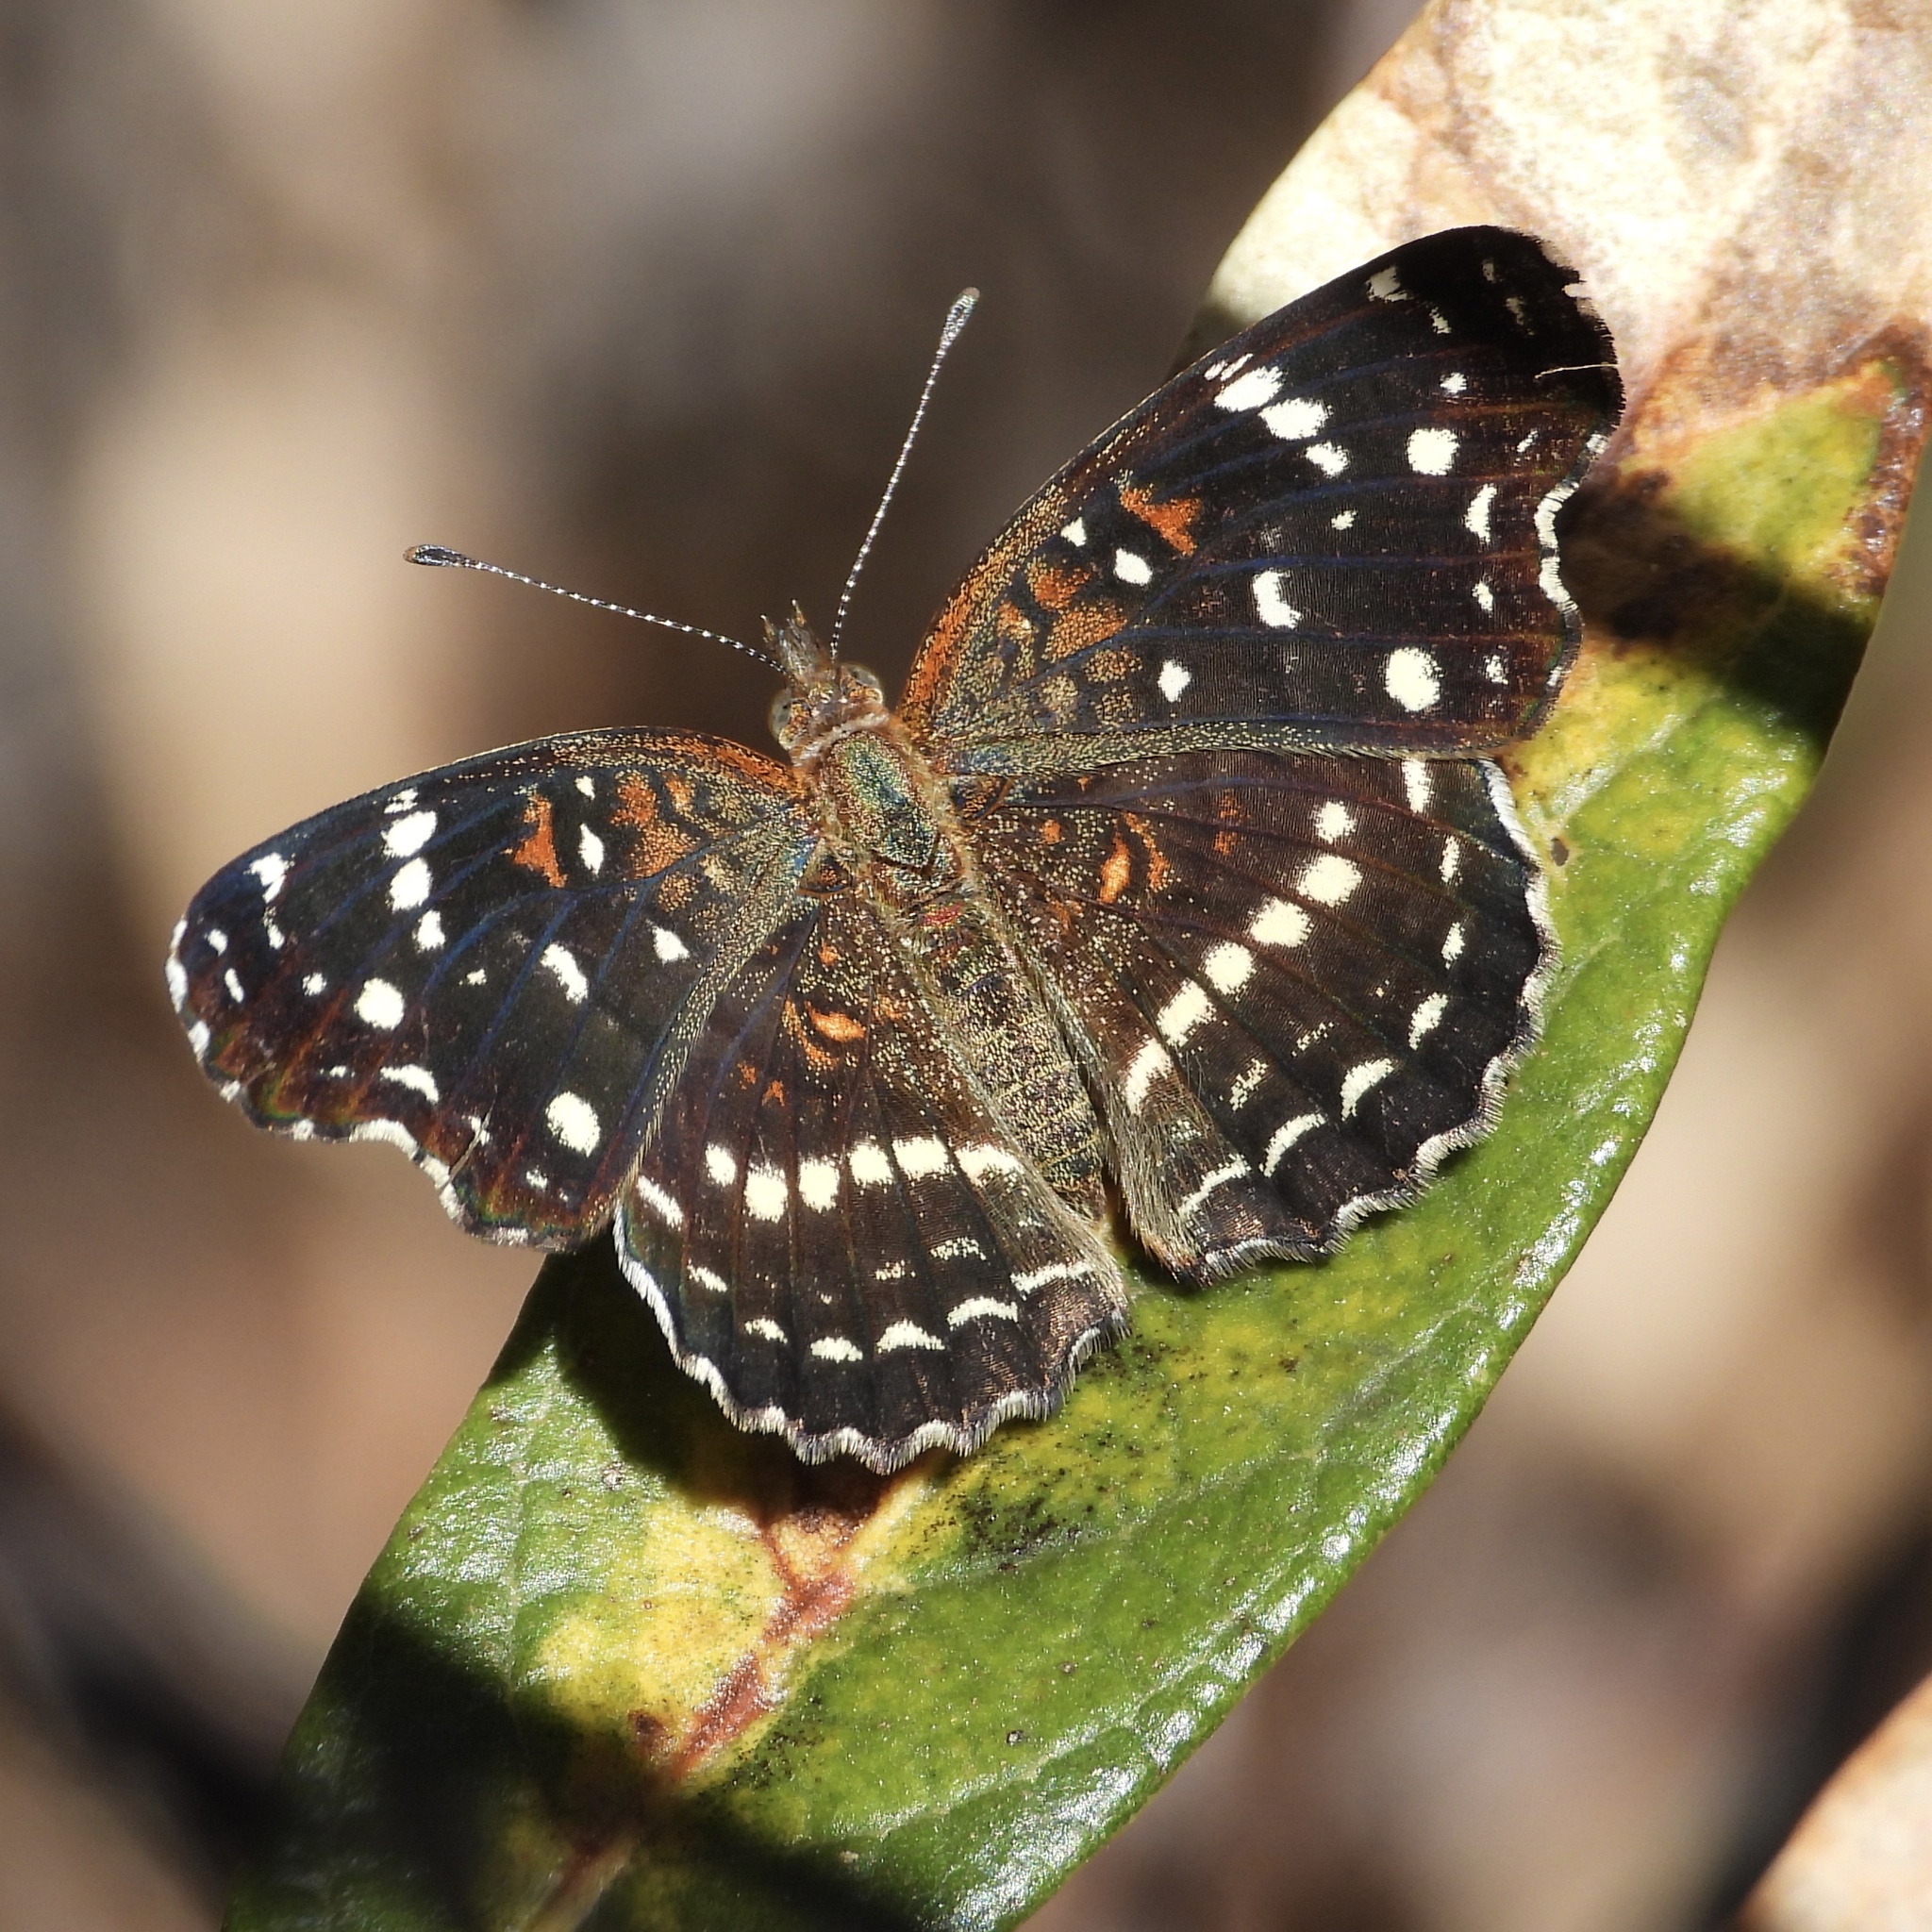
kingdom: Animalia
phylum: Arthropoda
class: Insecta
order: Lepidoptera
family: Nymphalidae
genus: Anthanassa
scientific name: Anthanassa texana
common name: Texan crescent
